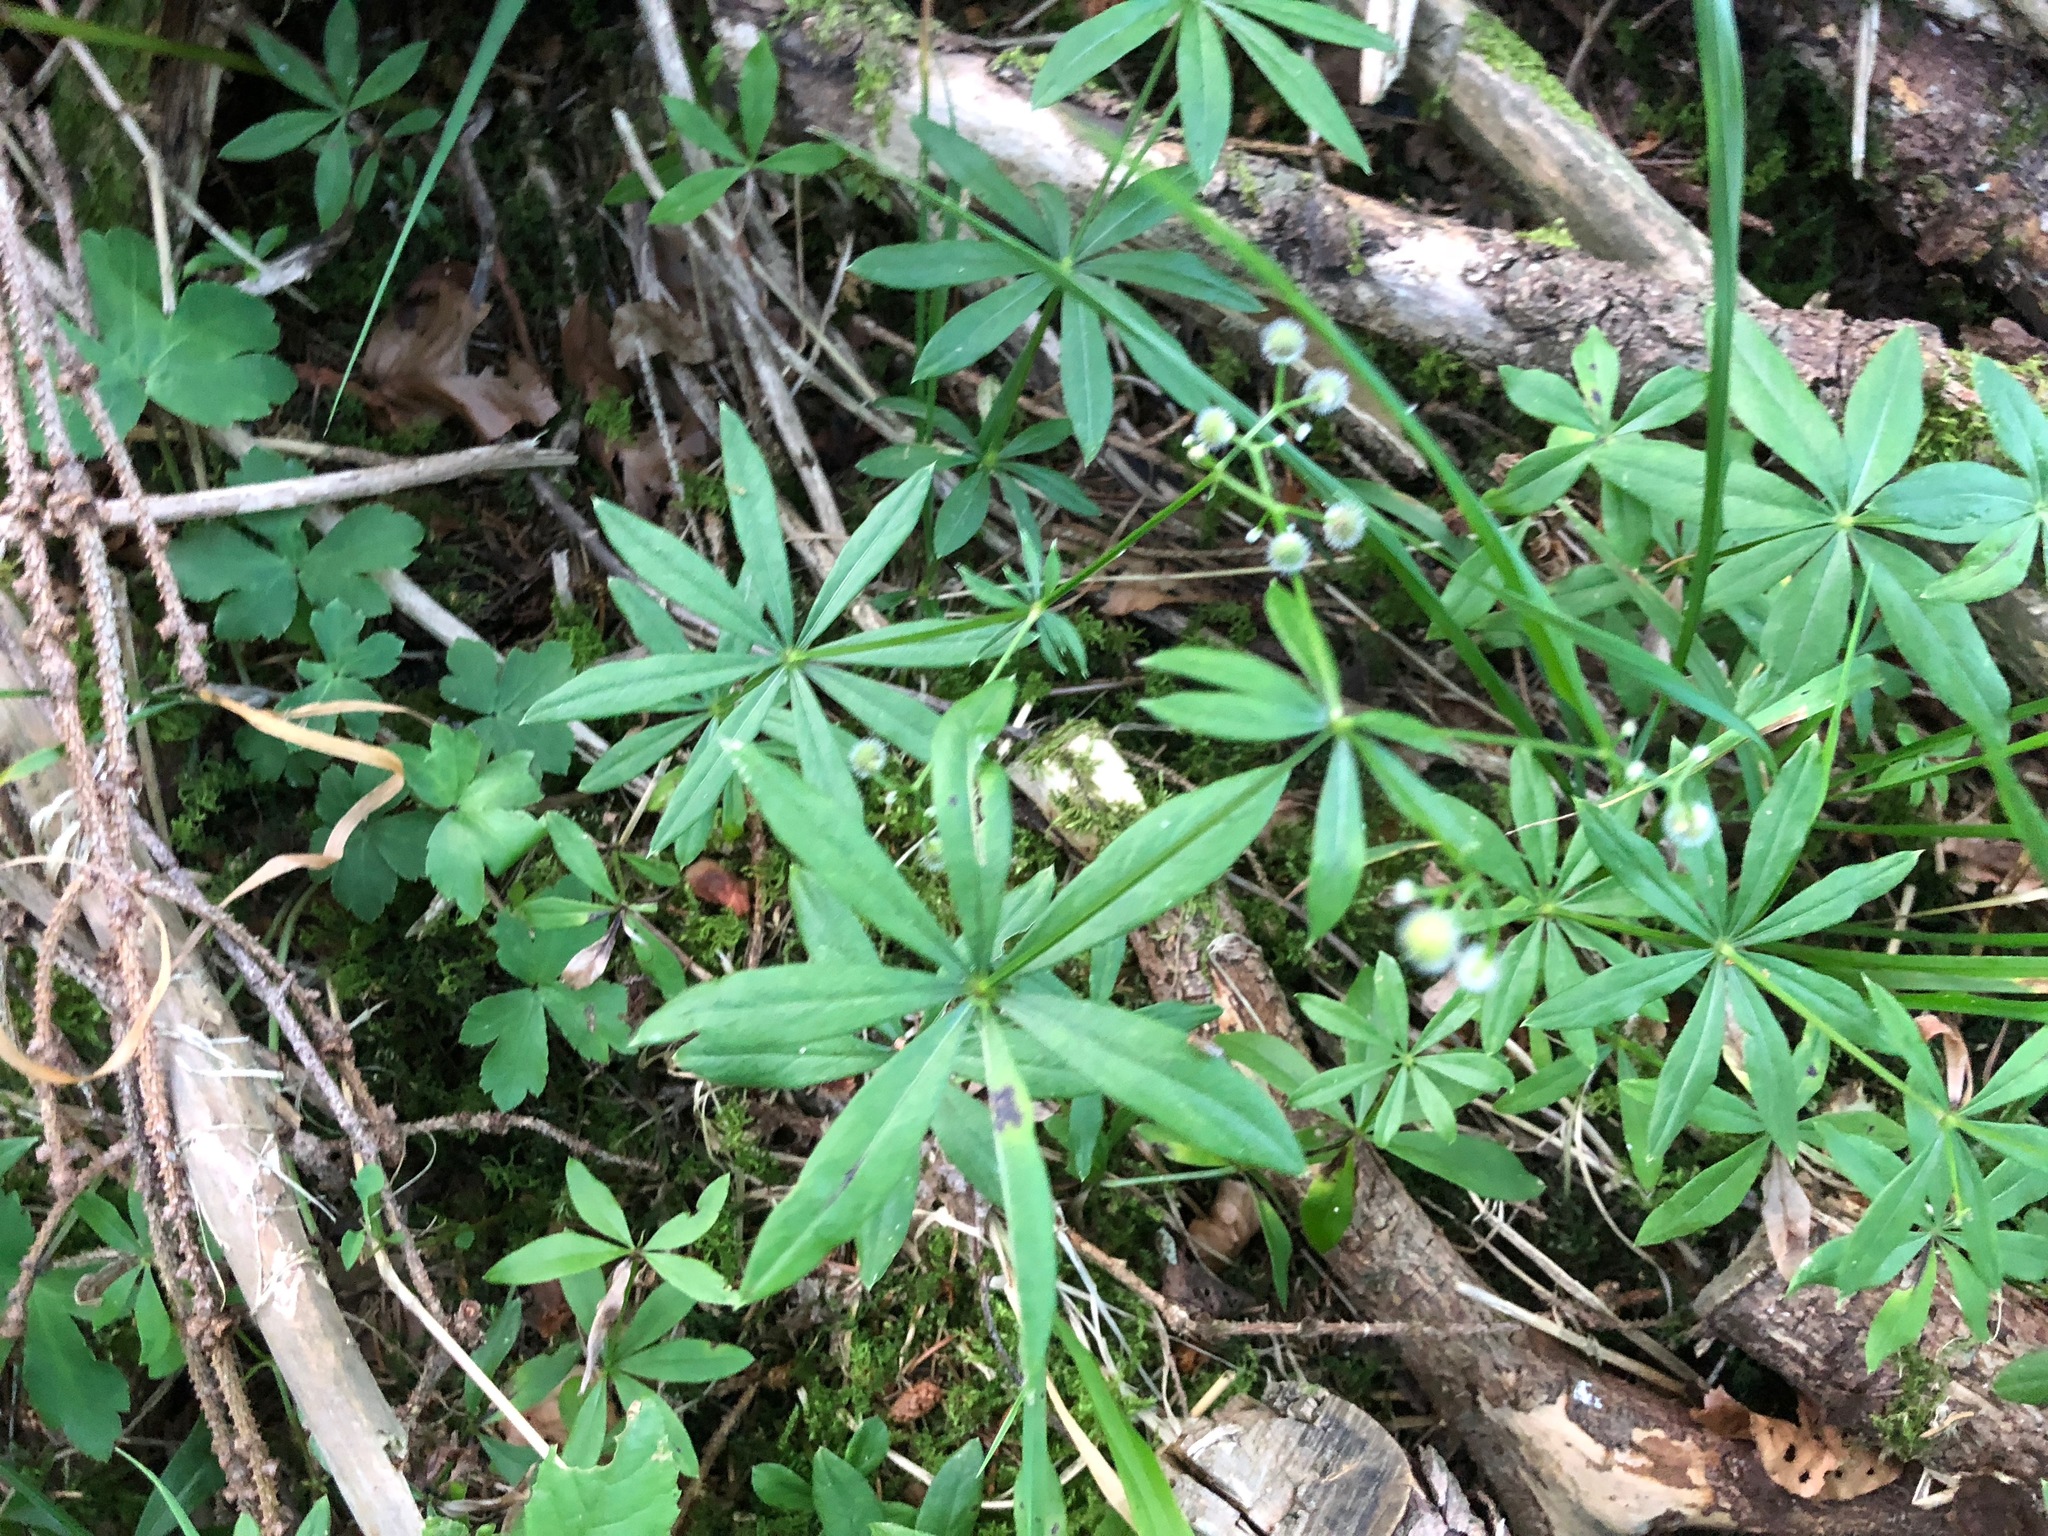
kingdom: Plantae
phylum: Tracheophyta
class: Magnoliopsida
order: Gentianales
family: Rubiaceae
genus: Galium
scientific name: Galium odoratum
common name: Sweet woodruff
